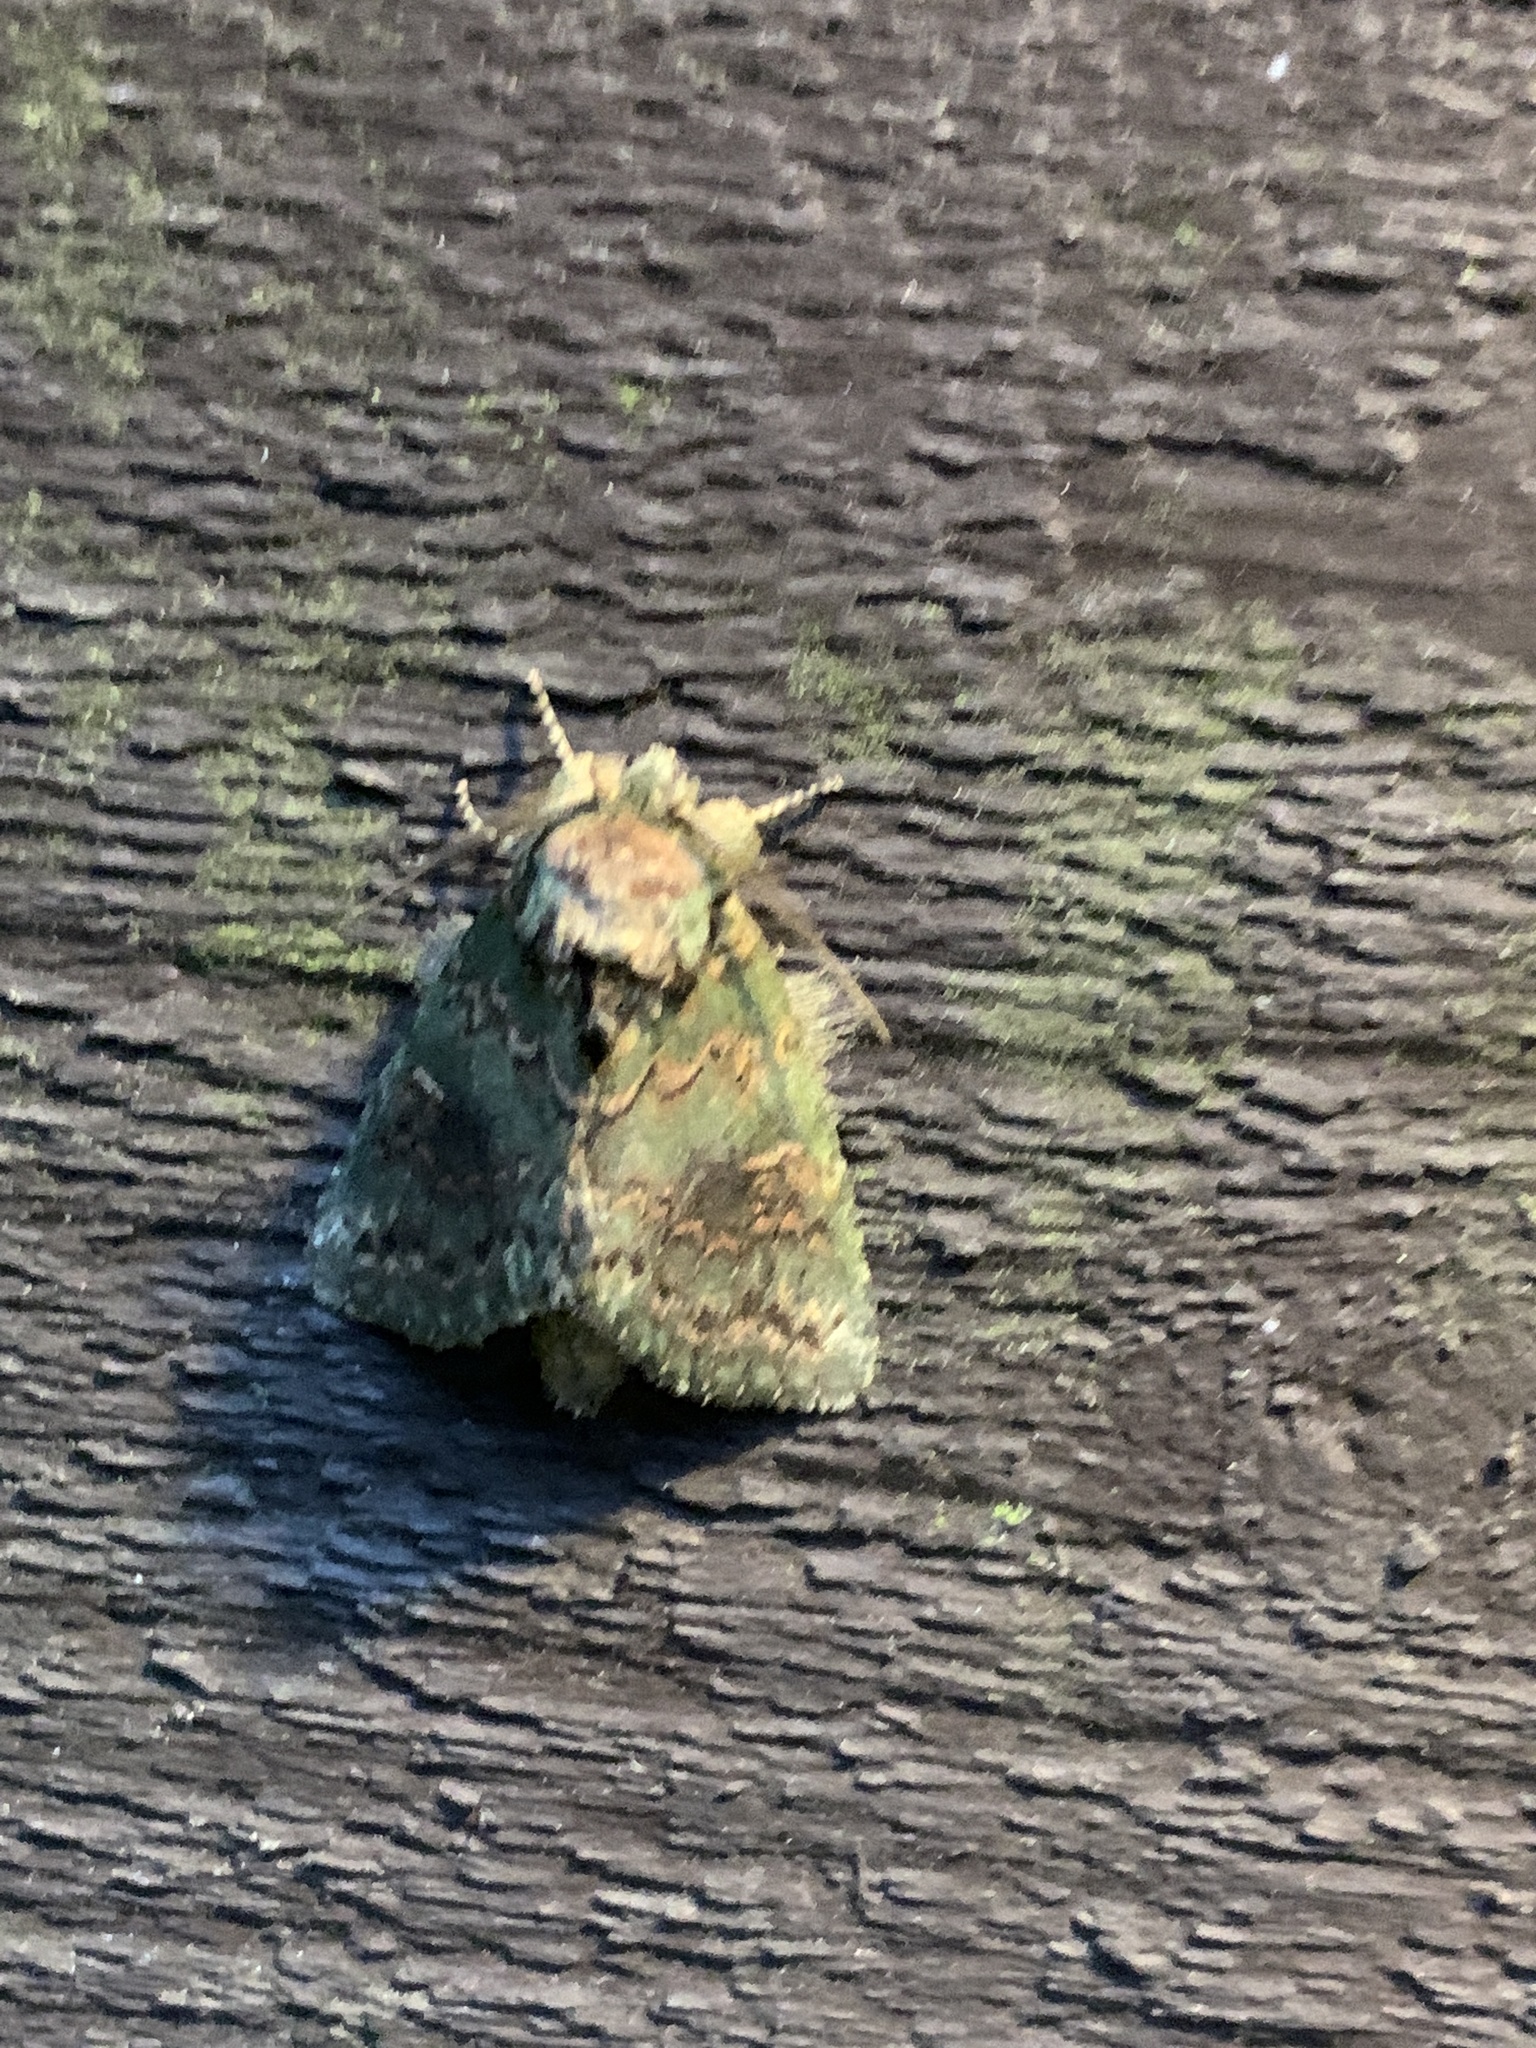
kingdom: Animalia
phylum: Arthropoda
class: Insecta
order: Lepidoptera
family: Notodontidae
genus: Disphragis
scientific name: Disphragis Cecrita biundata
